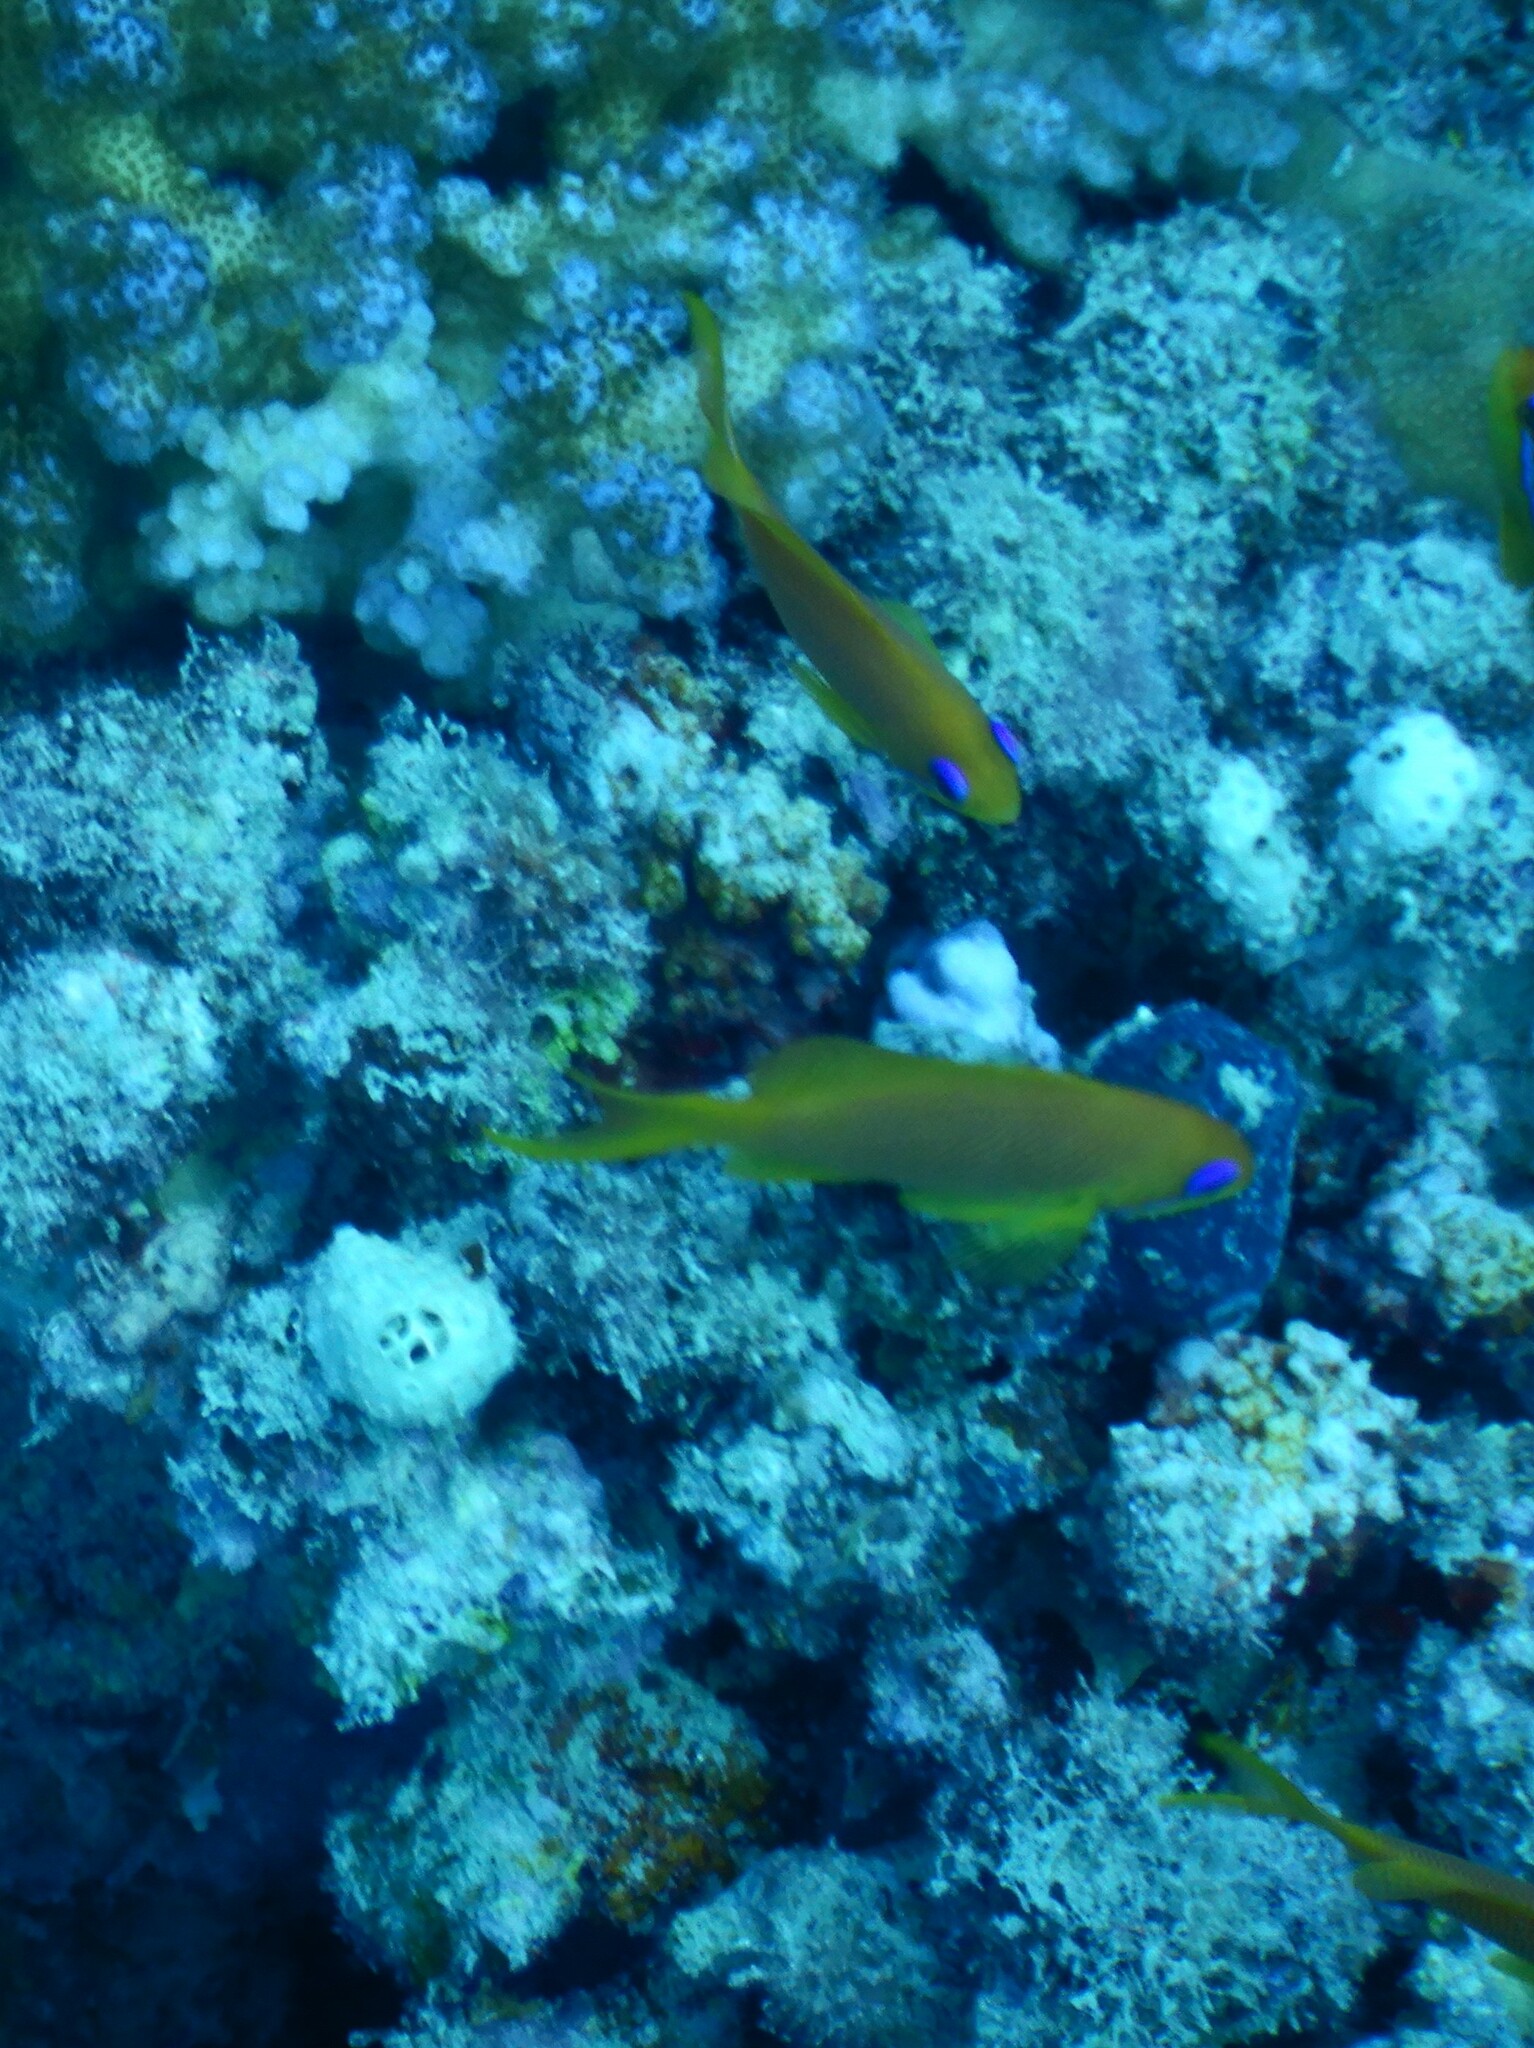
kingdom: Animalia
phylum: Chordata
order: Perciformes
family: Serranidae
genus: Pseudanthias
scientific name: Pseudanthias squamipinnis
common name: Scalefin anthias
